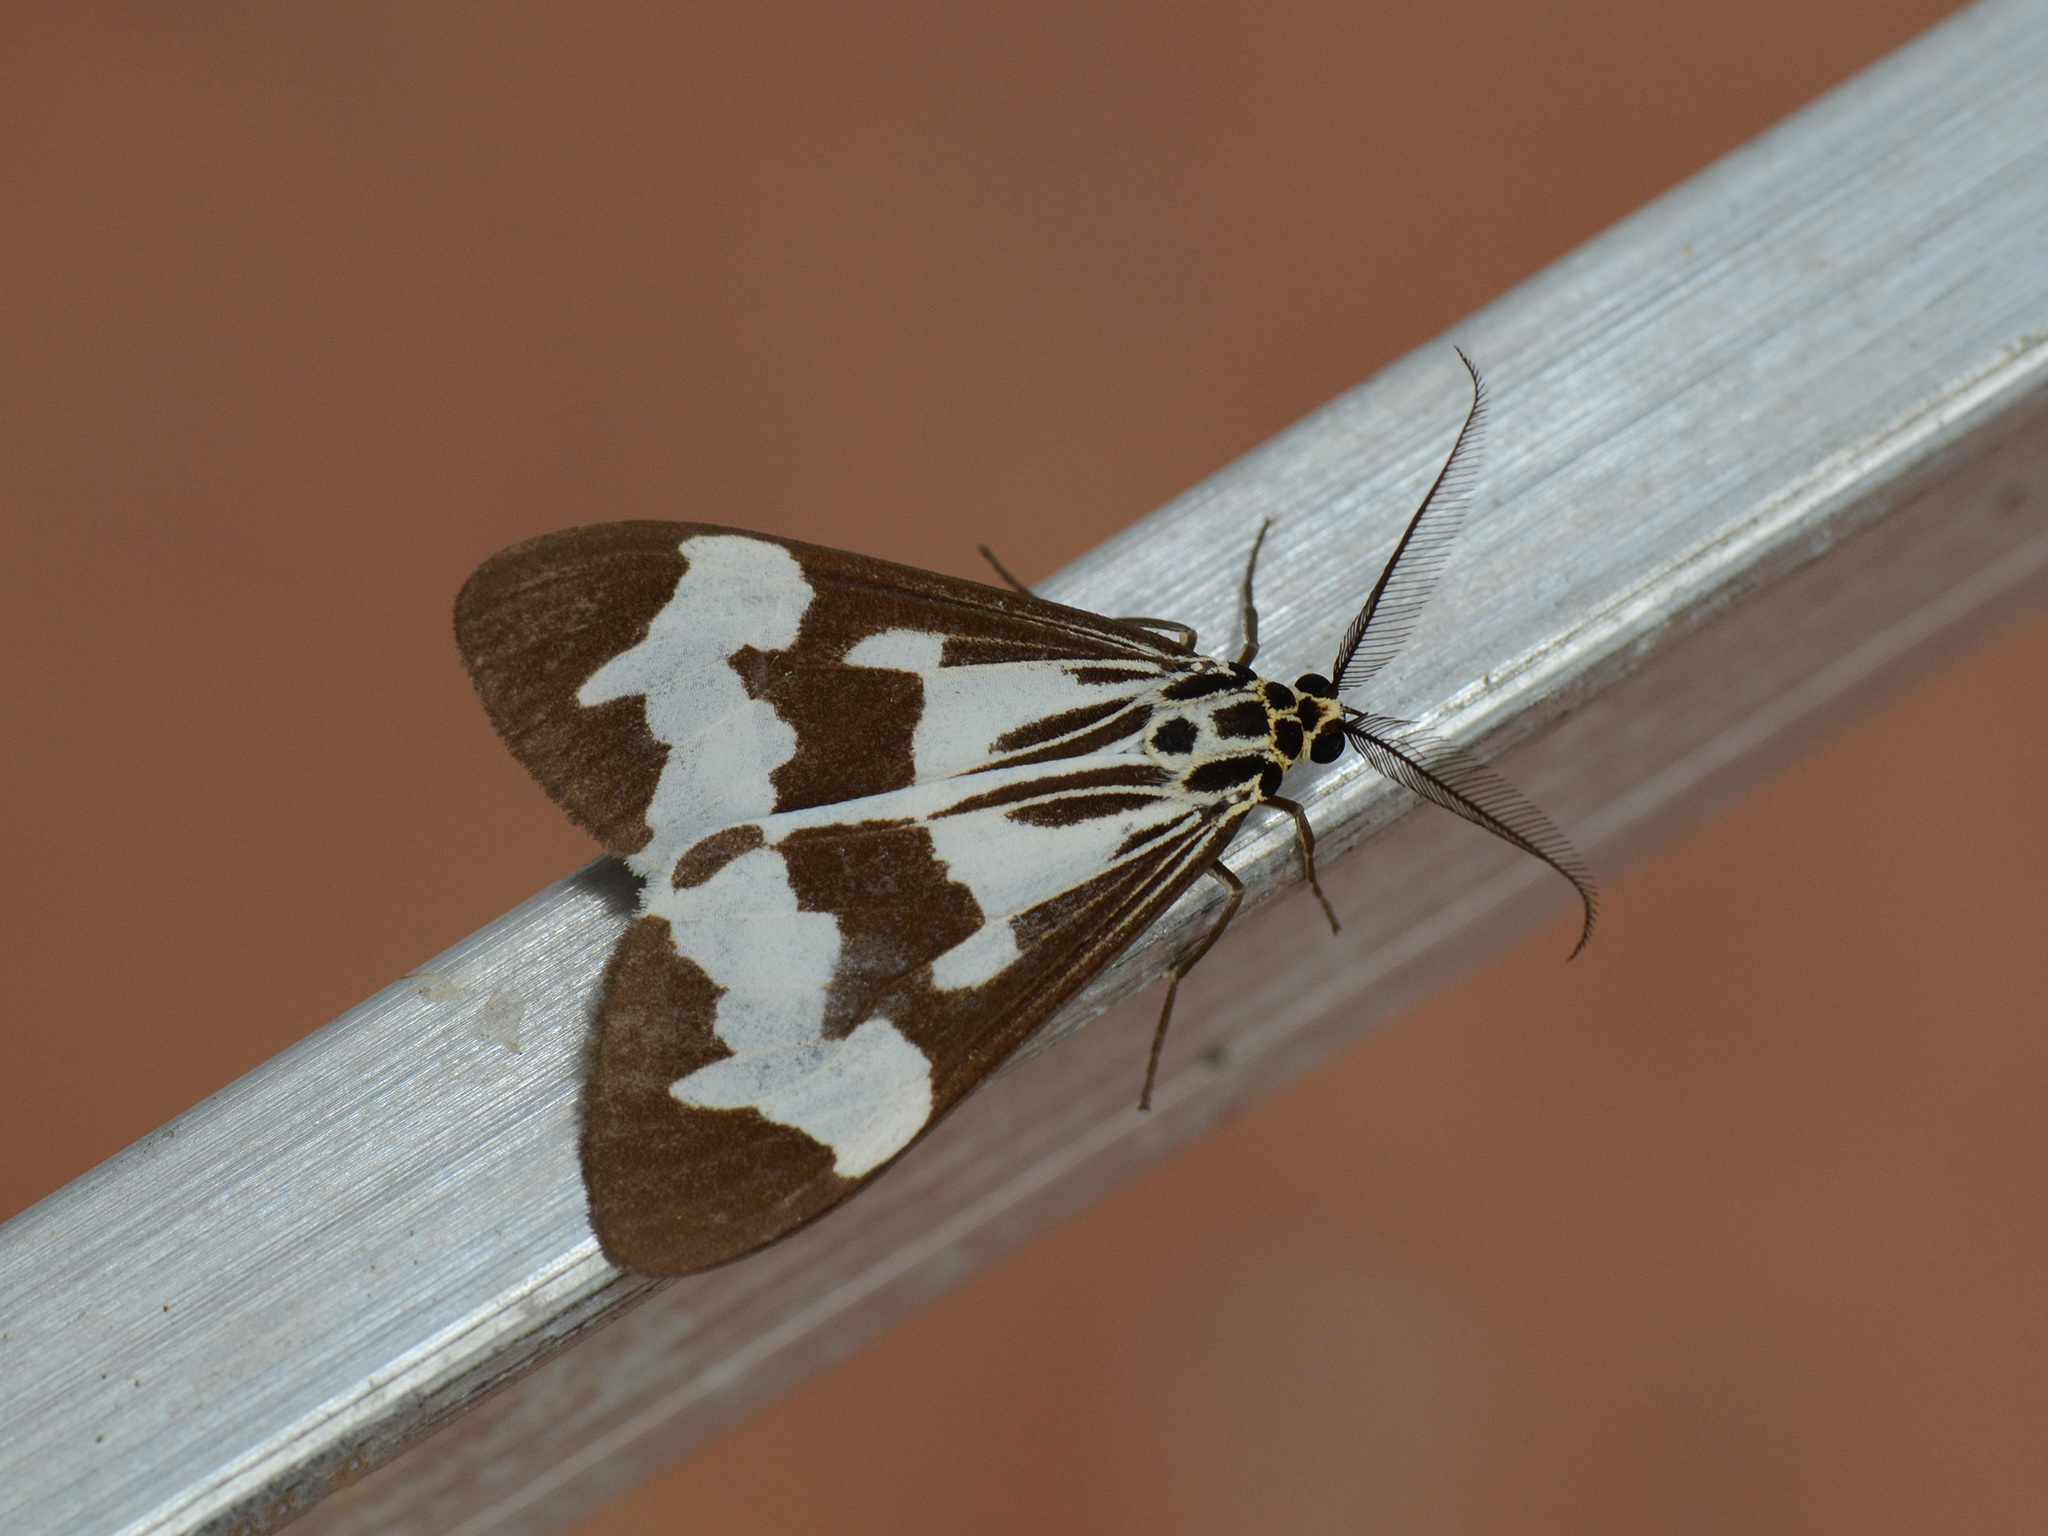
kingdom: Animalia
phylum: Arthropoda
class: Insecta
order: Lepidoptera
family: Erebidae
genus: Nyctemera
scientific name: Nyctemera luctuosum
